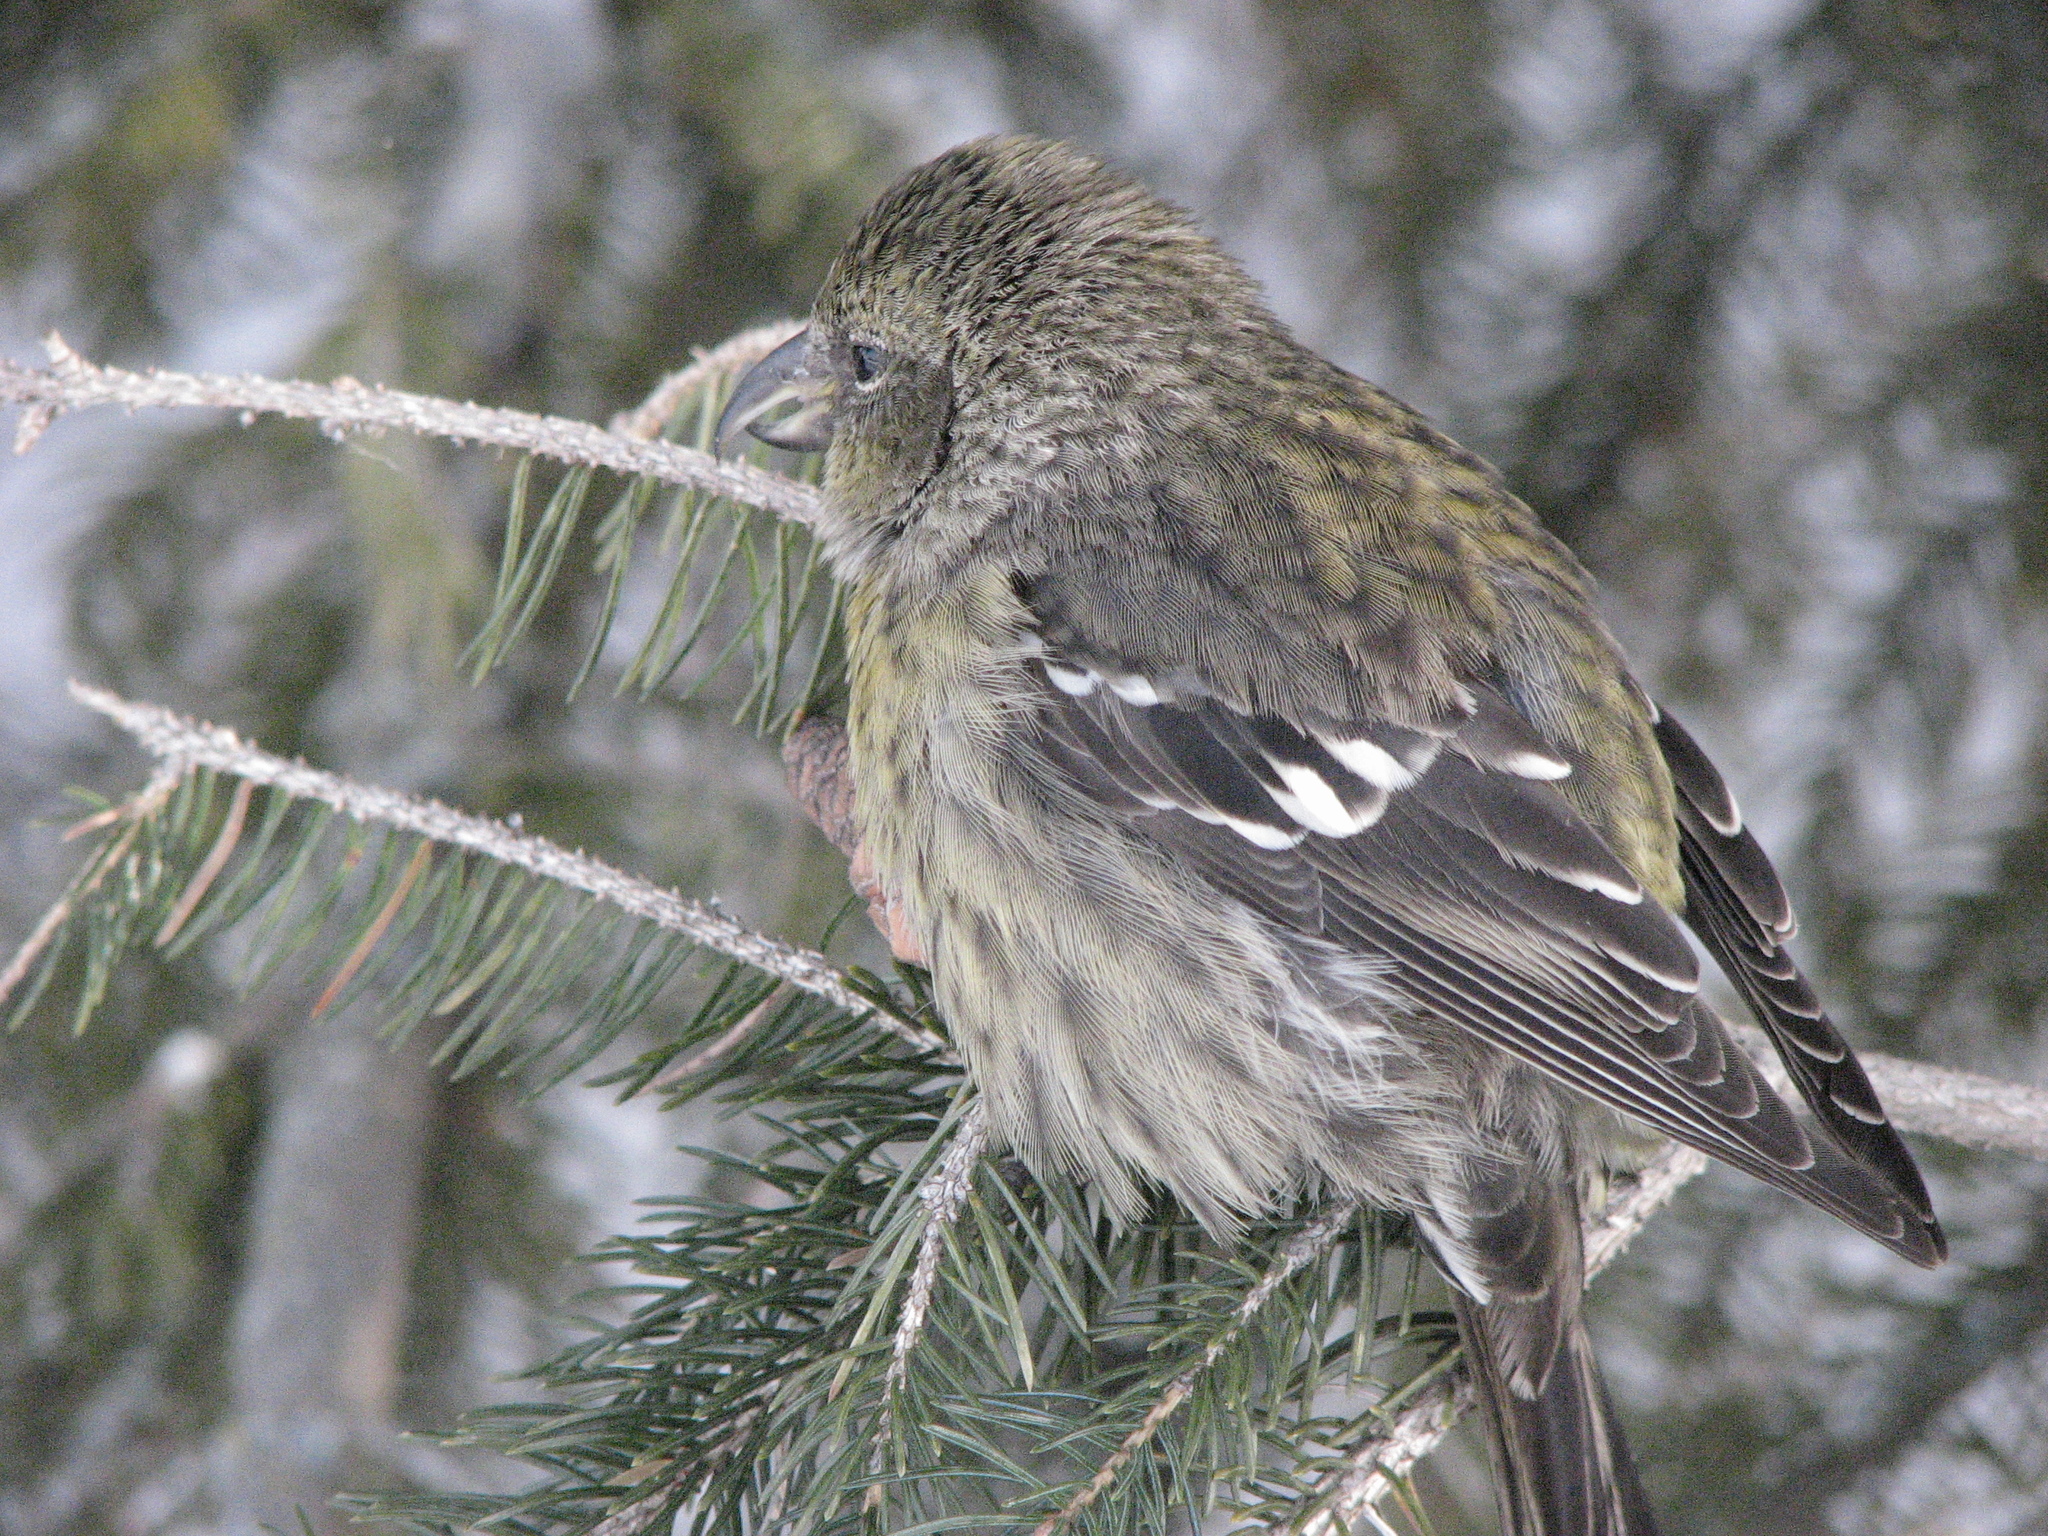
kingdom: Animalia
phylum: Chordata
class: Aves
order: Passeriformes
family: Fringillidae
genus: Loxia
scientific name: Loxia leucoptera
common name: Two-barred crossbill
